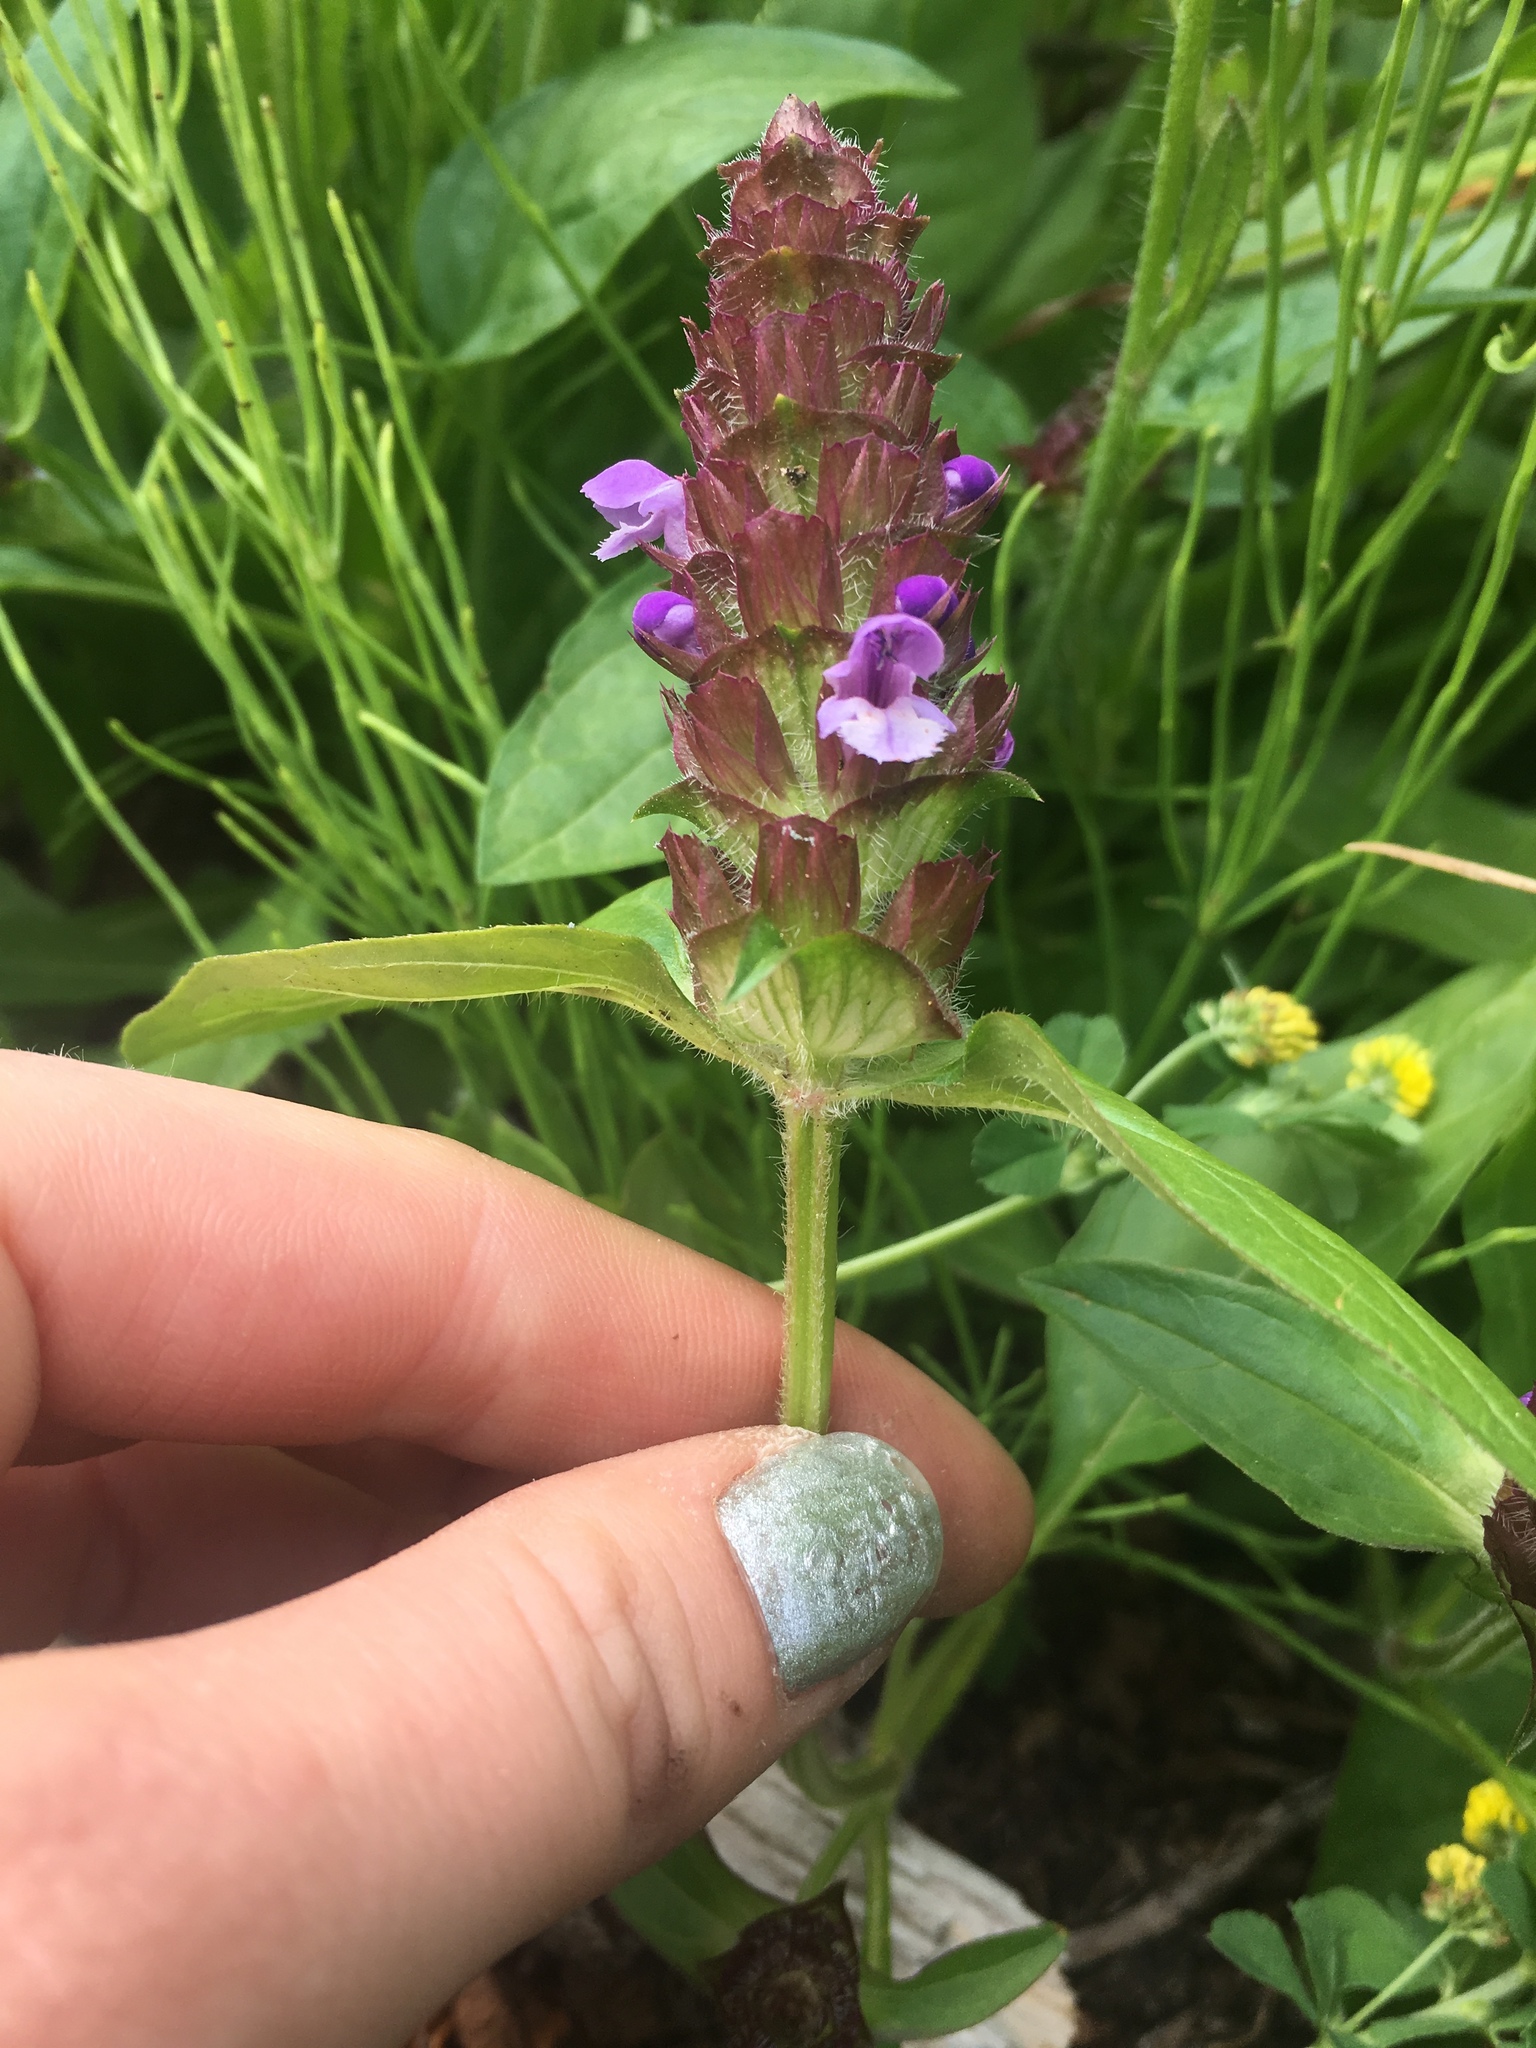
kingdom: Plantae
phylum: Tracheophyta
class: Magnoliopsida
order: Lamiales
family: Lamiaceae
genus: Prunella
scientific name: Prunella vulgaris
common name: Heal-all
